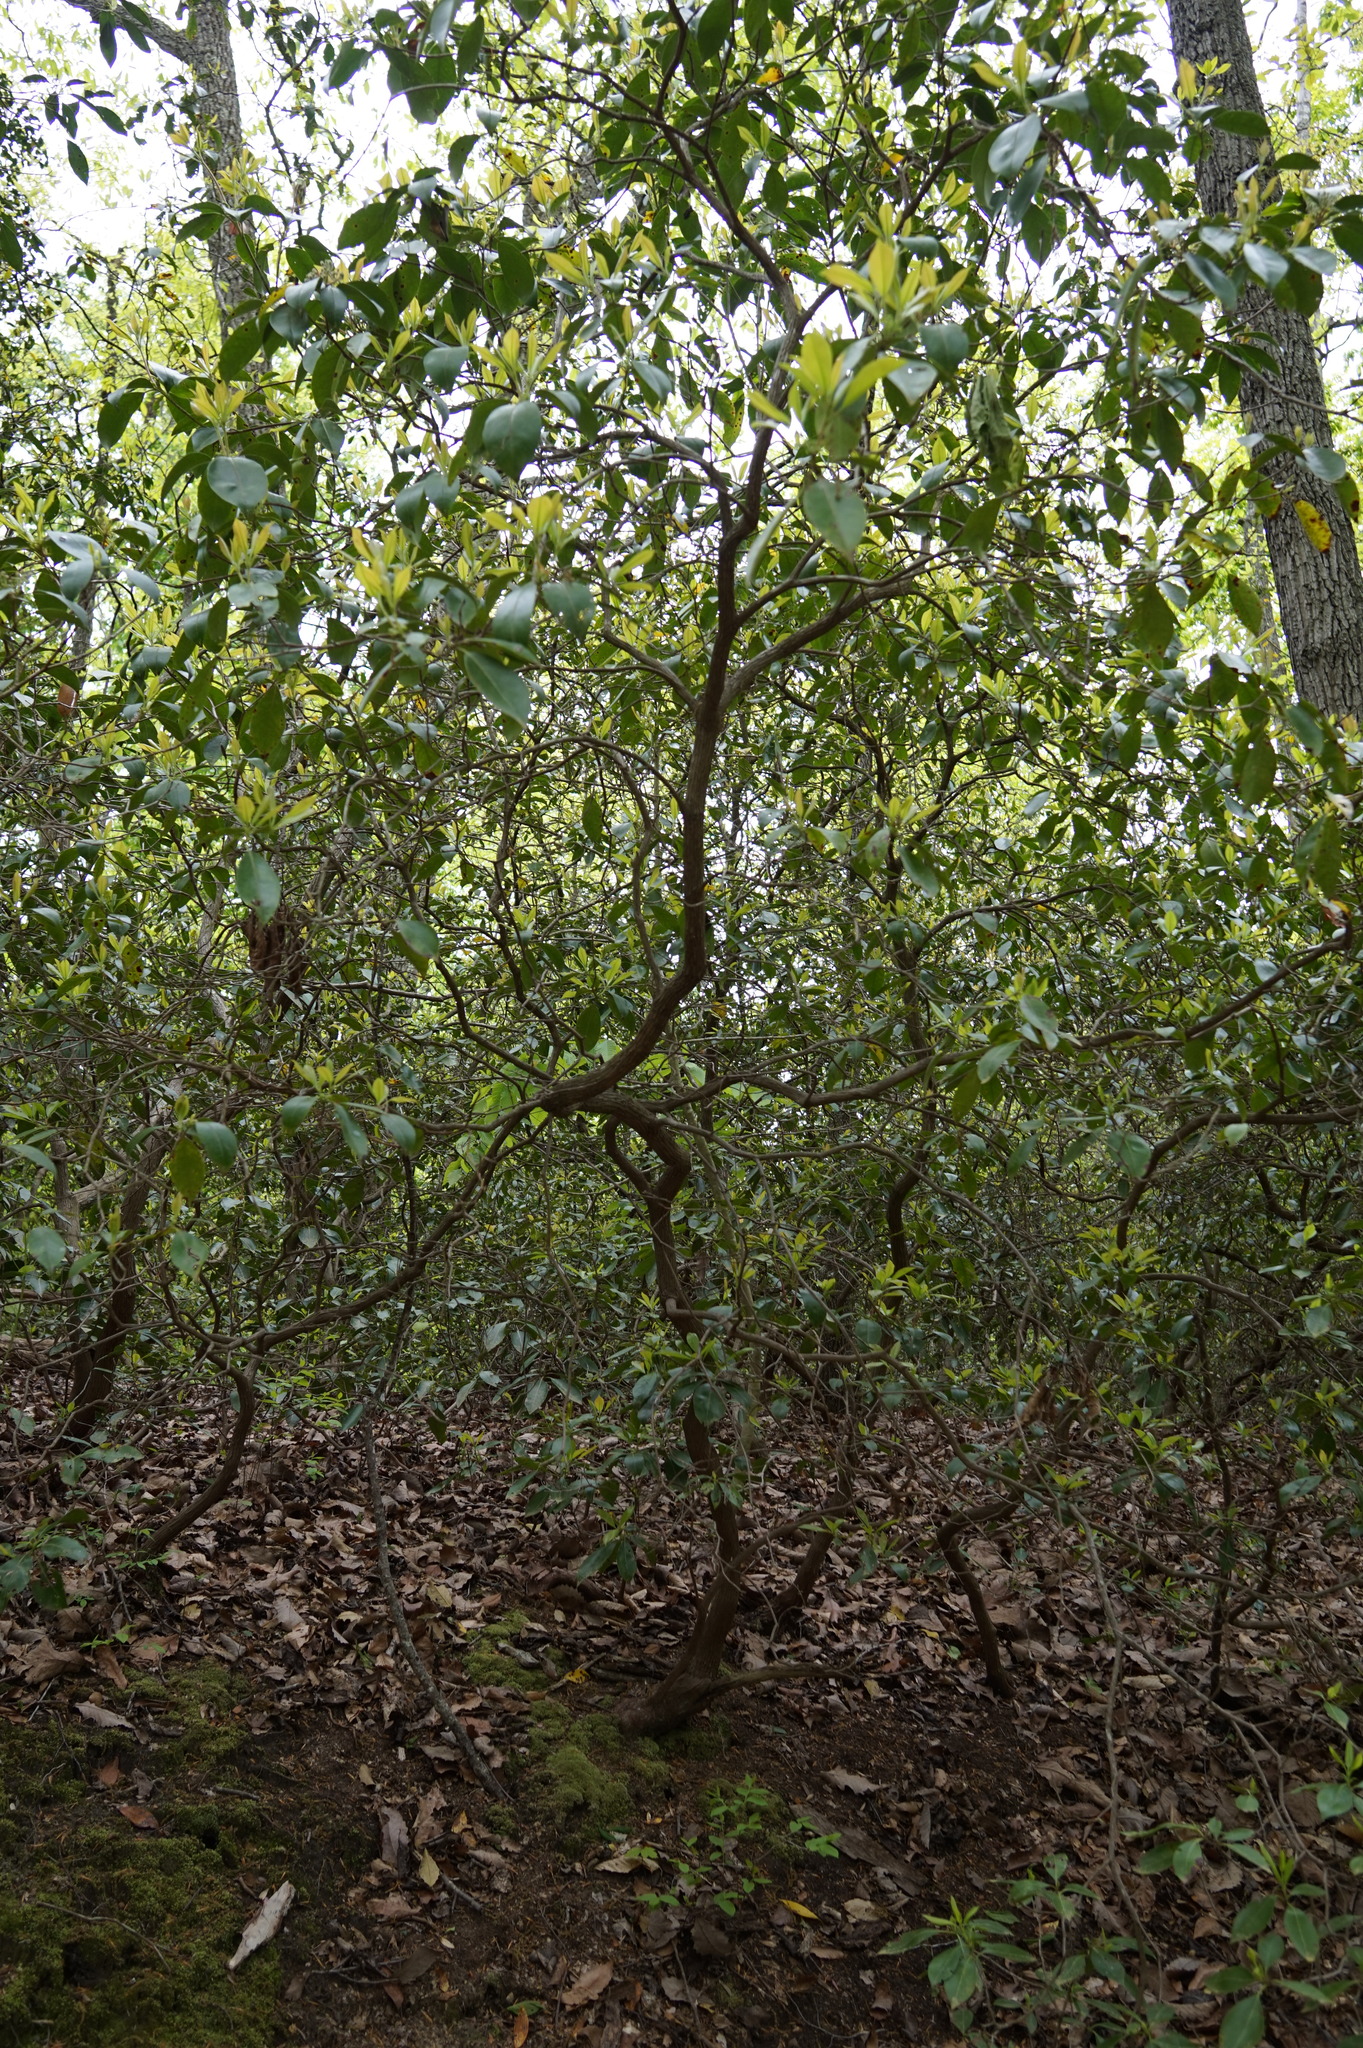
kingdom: Plantae
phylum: Tracheophyta
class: Magnoliopsida
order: Ericales
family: Ericaceae
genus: Kalmia
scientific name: Kalmia latifolia
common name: Mountain-laurel
